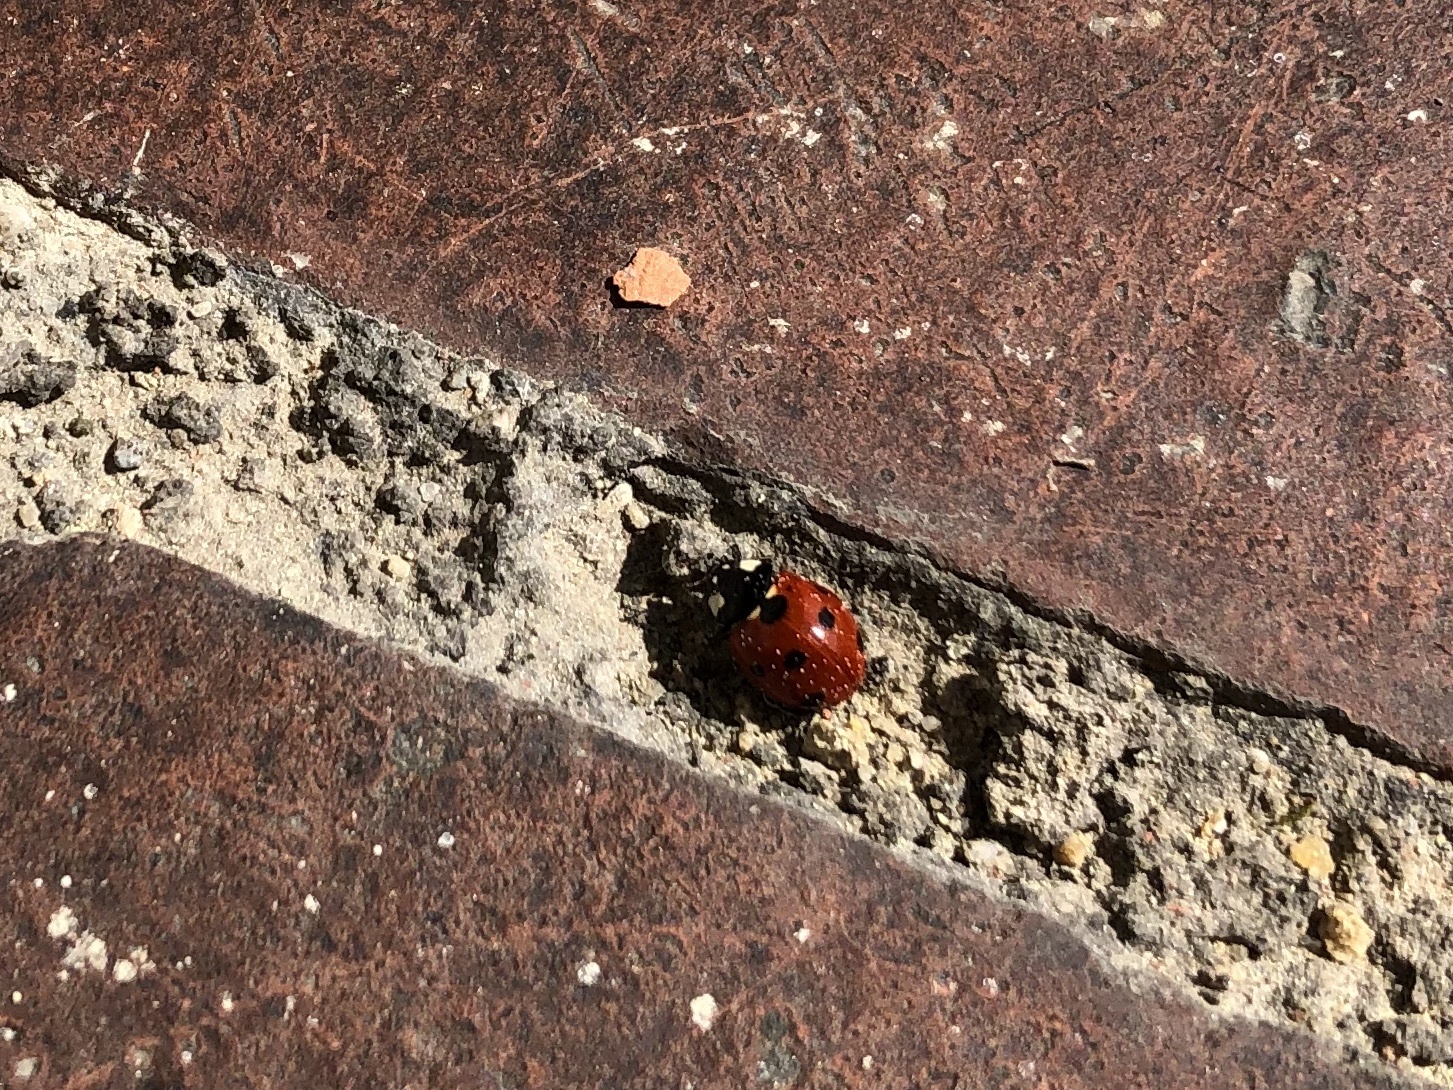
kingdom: Animalia
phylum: Arthropoda
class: Insecta
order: Coleoptera
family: Coccinellidae
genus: Coccinella
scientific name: Coccinella septempunctata
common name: Sevenspotted lady beetle
